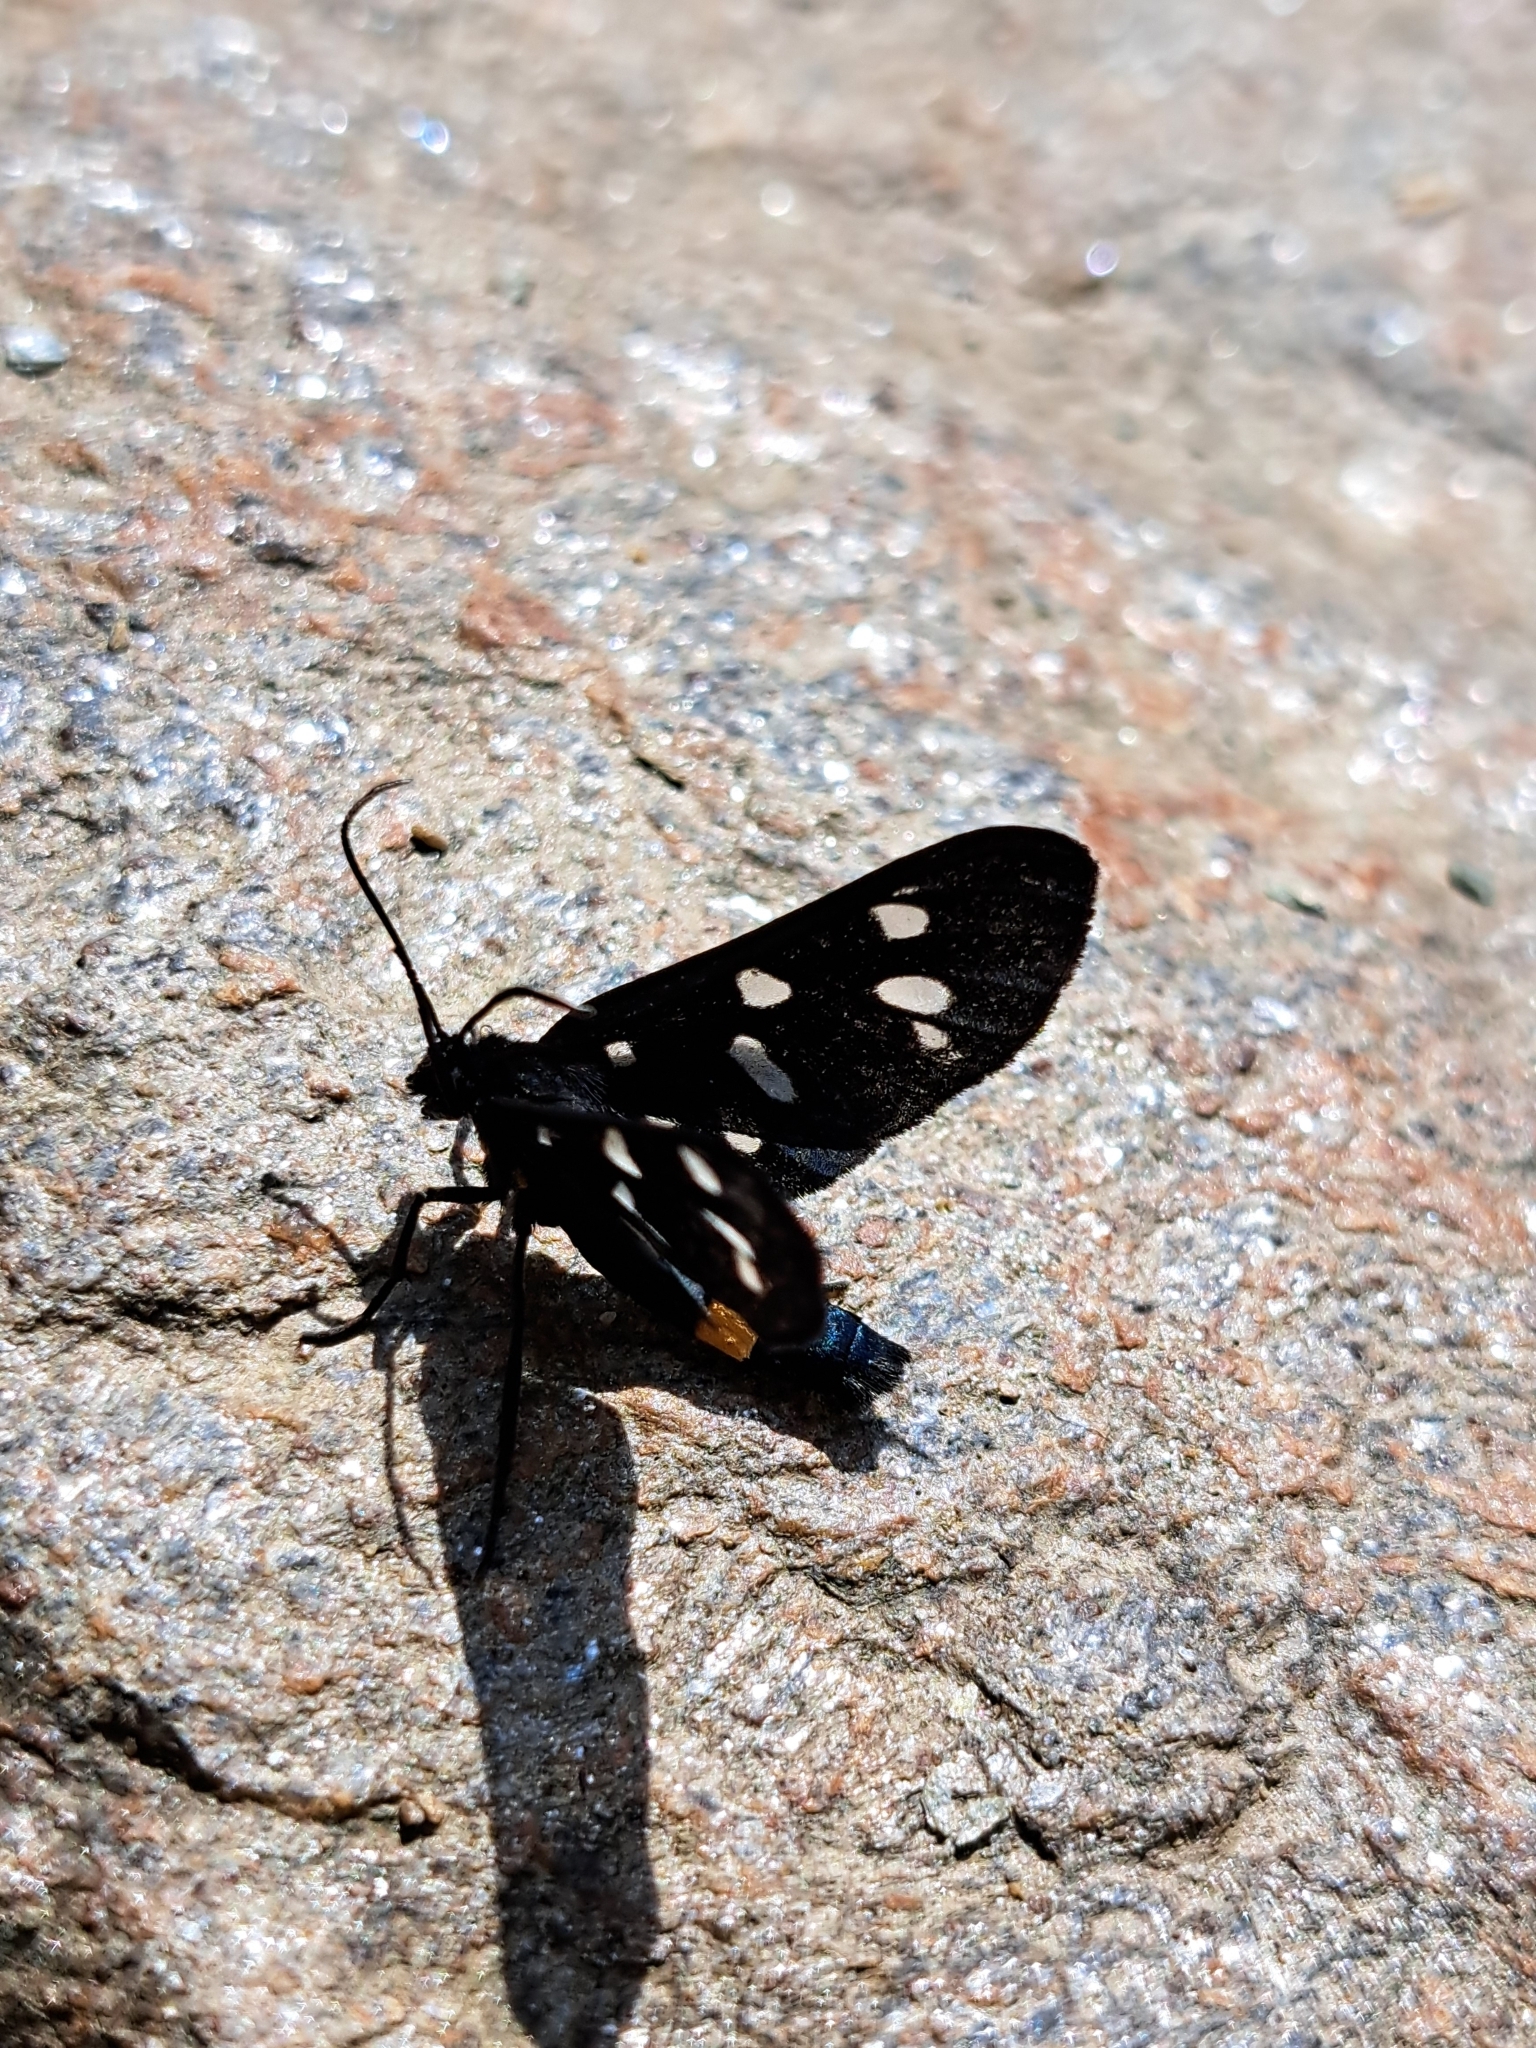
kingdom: Animalia
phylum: Arthropoda
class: Insecta
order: Lepidoptera
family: Erebidae
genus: Amata
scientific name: Amata phegea
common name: Nine-spotted
